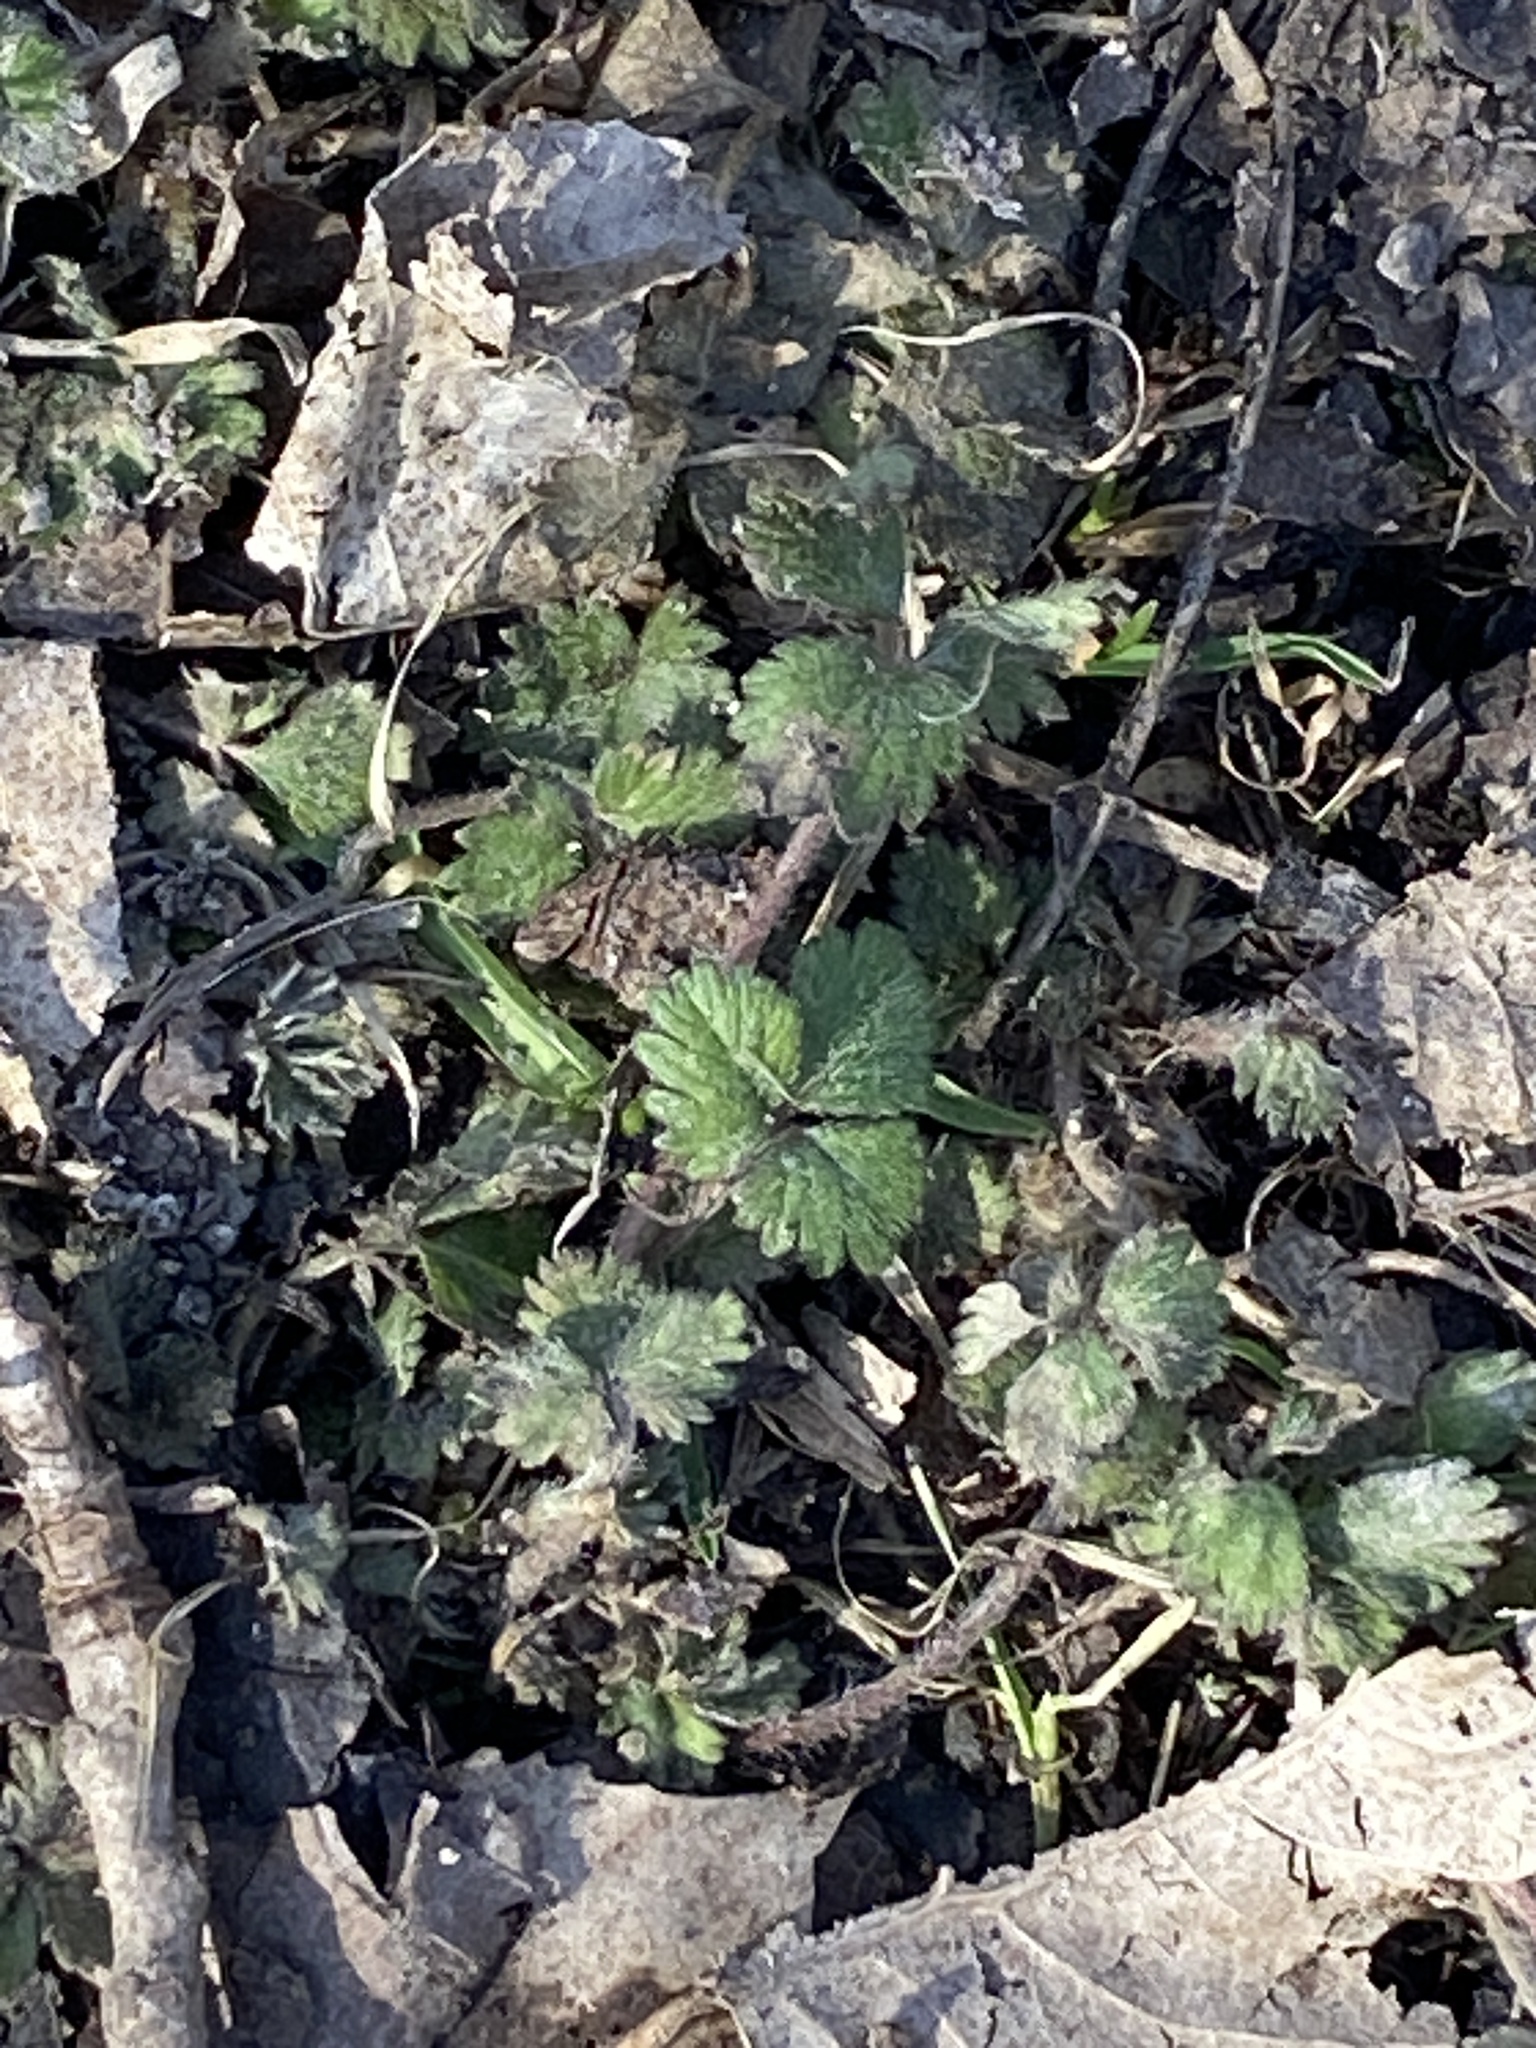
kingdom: Plantae
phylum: Tracheophyta
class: Magnoliopsida
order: Rosales
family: Rosaceae
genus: Potentilla
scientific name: Potentilla indica
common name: Yellow-flowered strawberry
